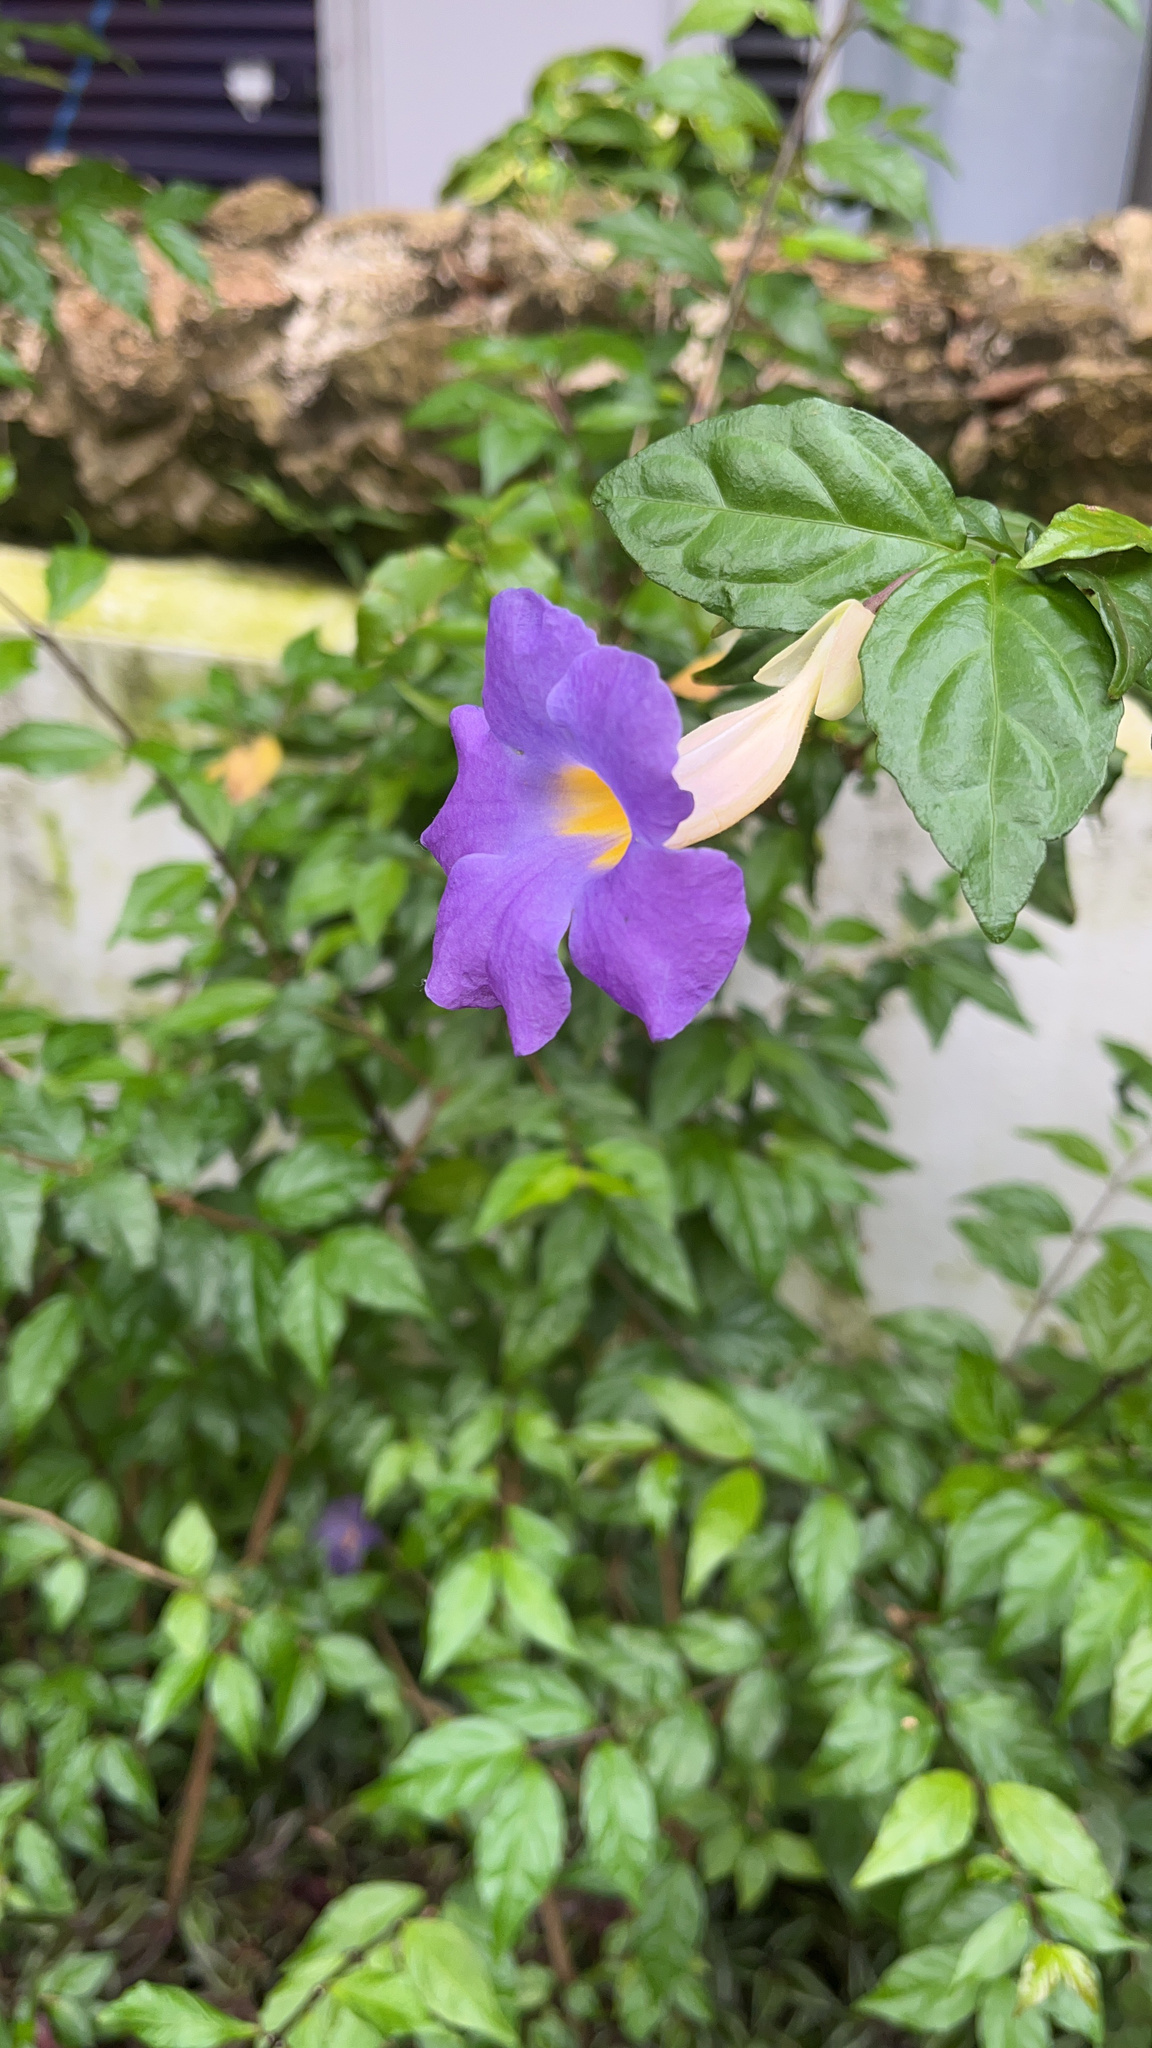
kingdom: Plantae
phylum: Tracheophyta
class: Magnoliopsida
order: Lamiales
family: Acanthaceae
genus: Thunbergia
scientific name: Thunbergia erecta
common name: Bush clockvine
